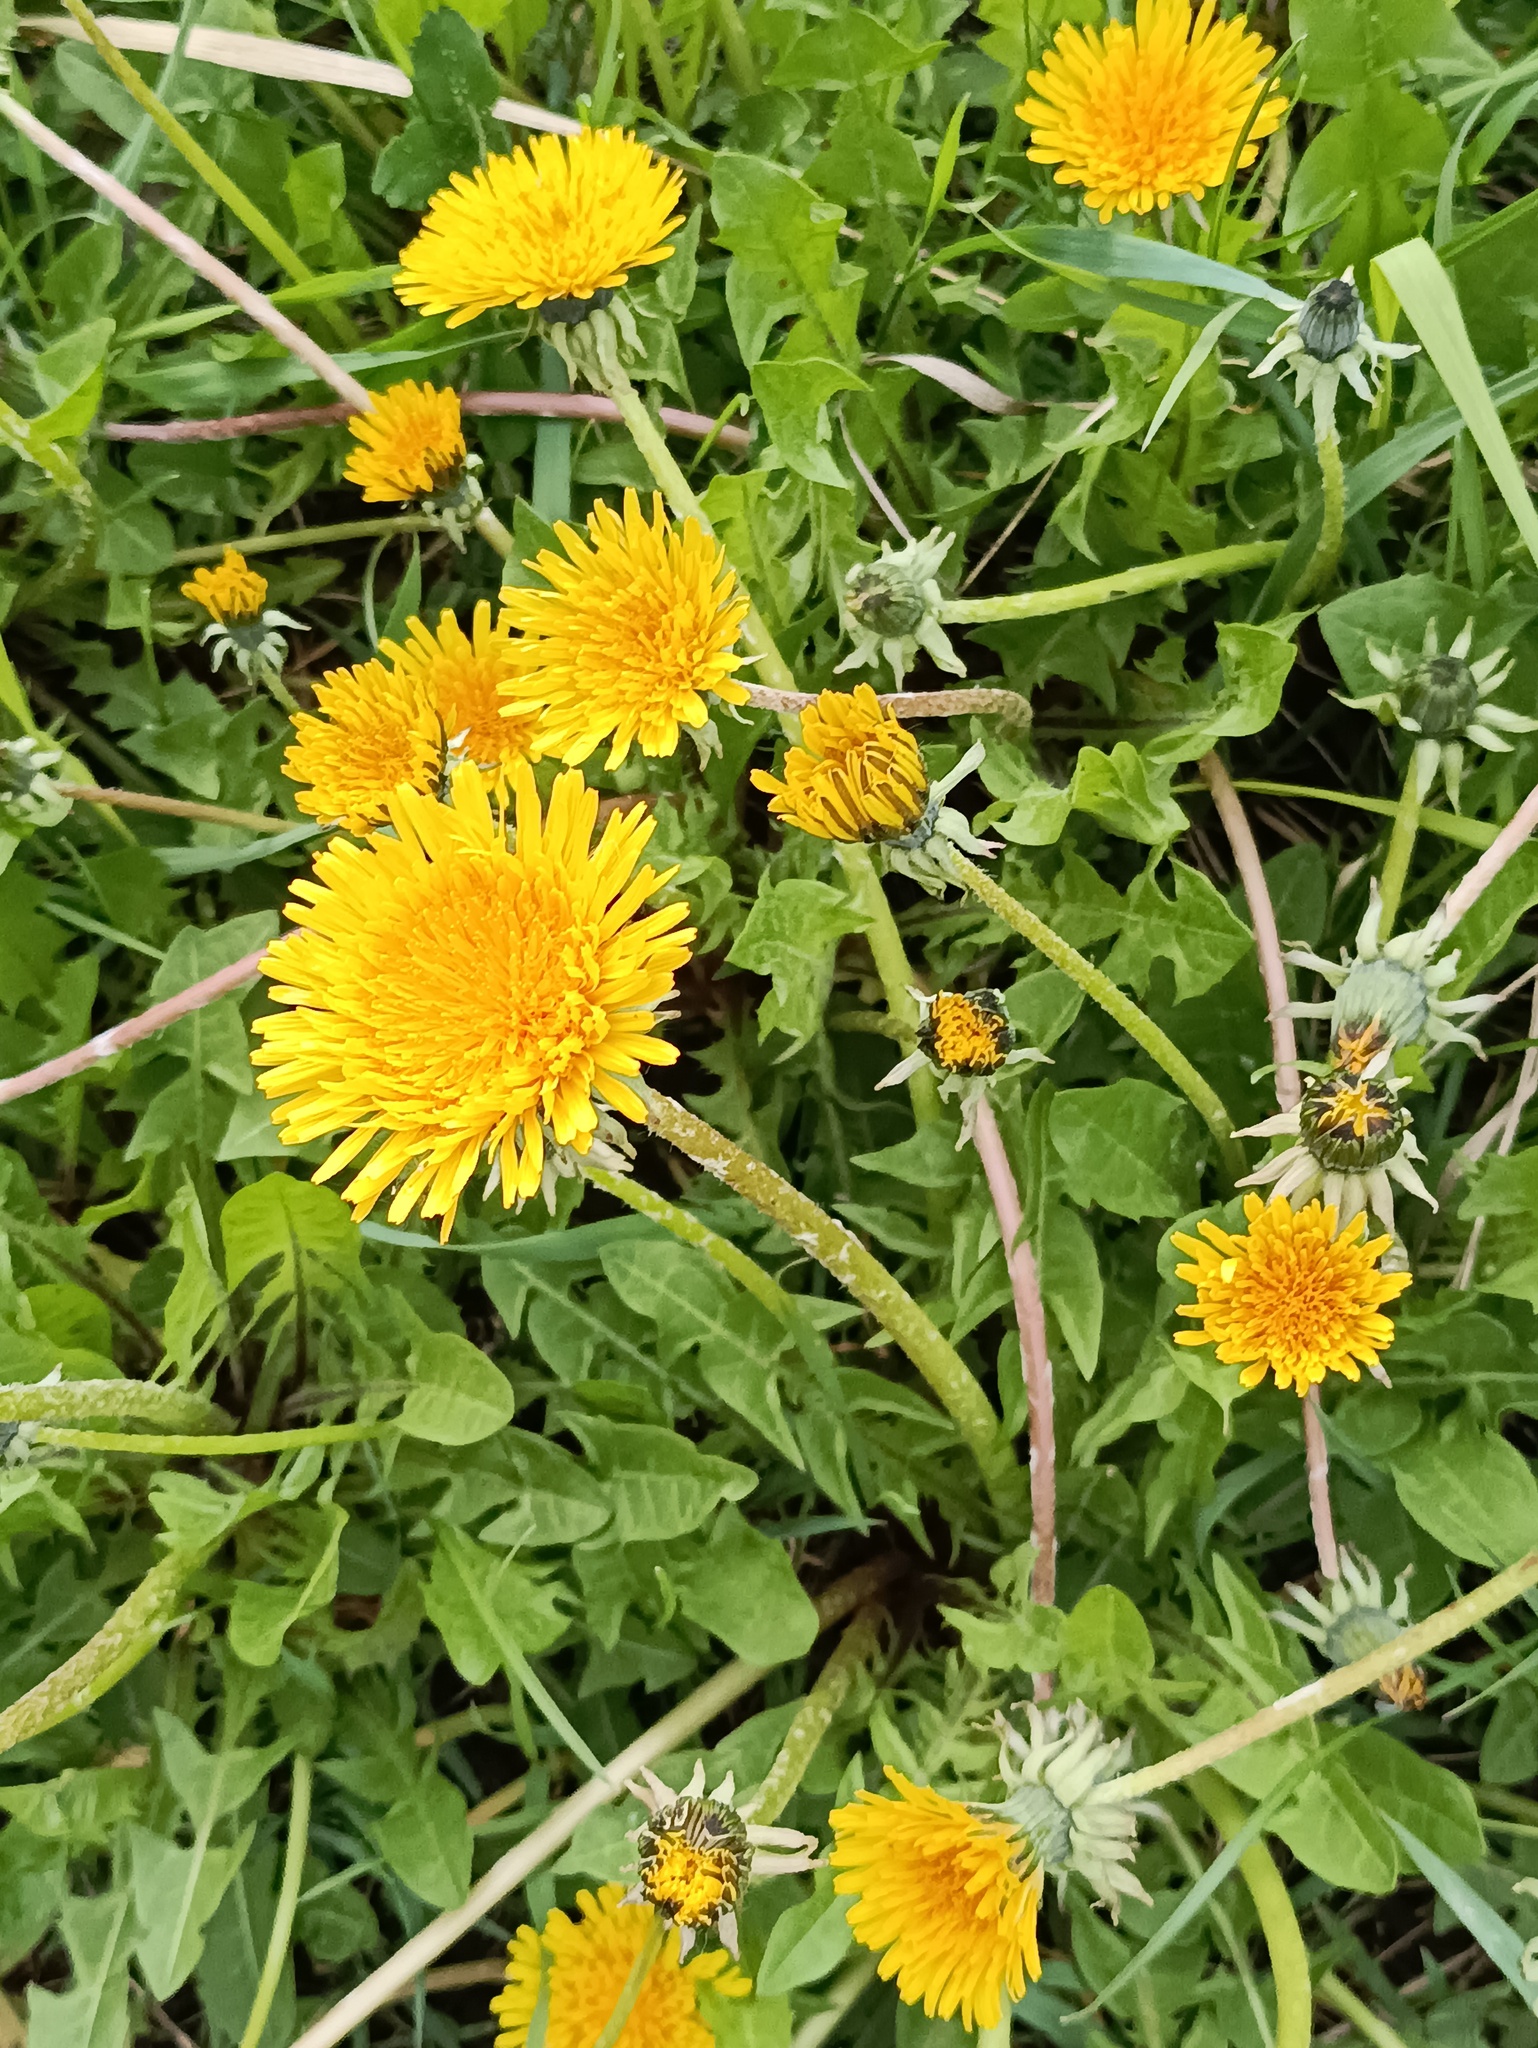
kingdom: Plantae
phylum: Tracheophyta
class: Magnoliopsida
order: Asterales
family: Asteraceae
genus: Taraxacum
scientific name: Taraxacum officinale
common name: Common dandelion
